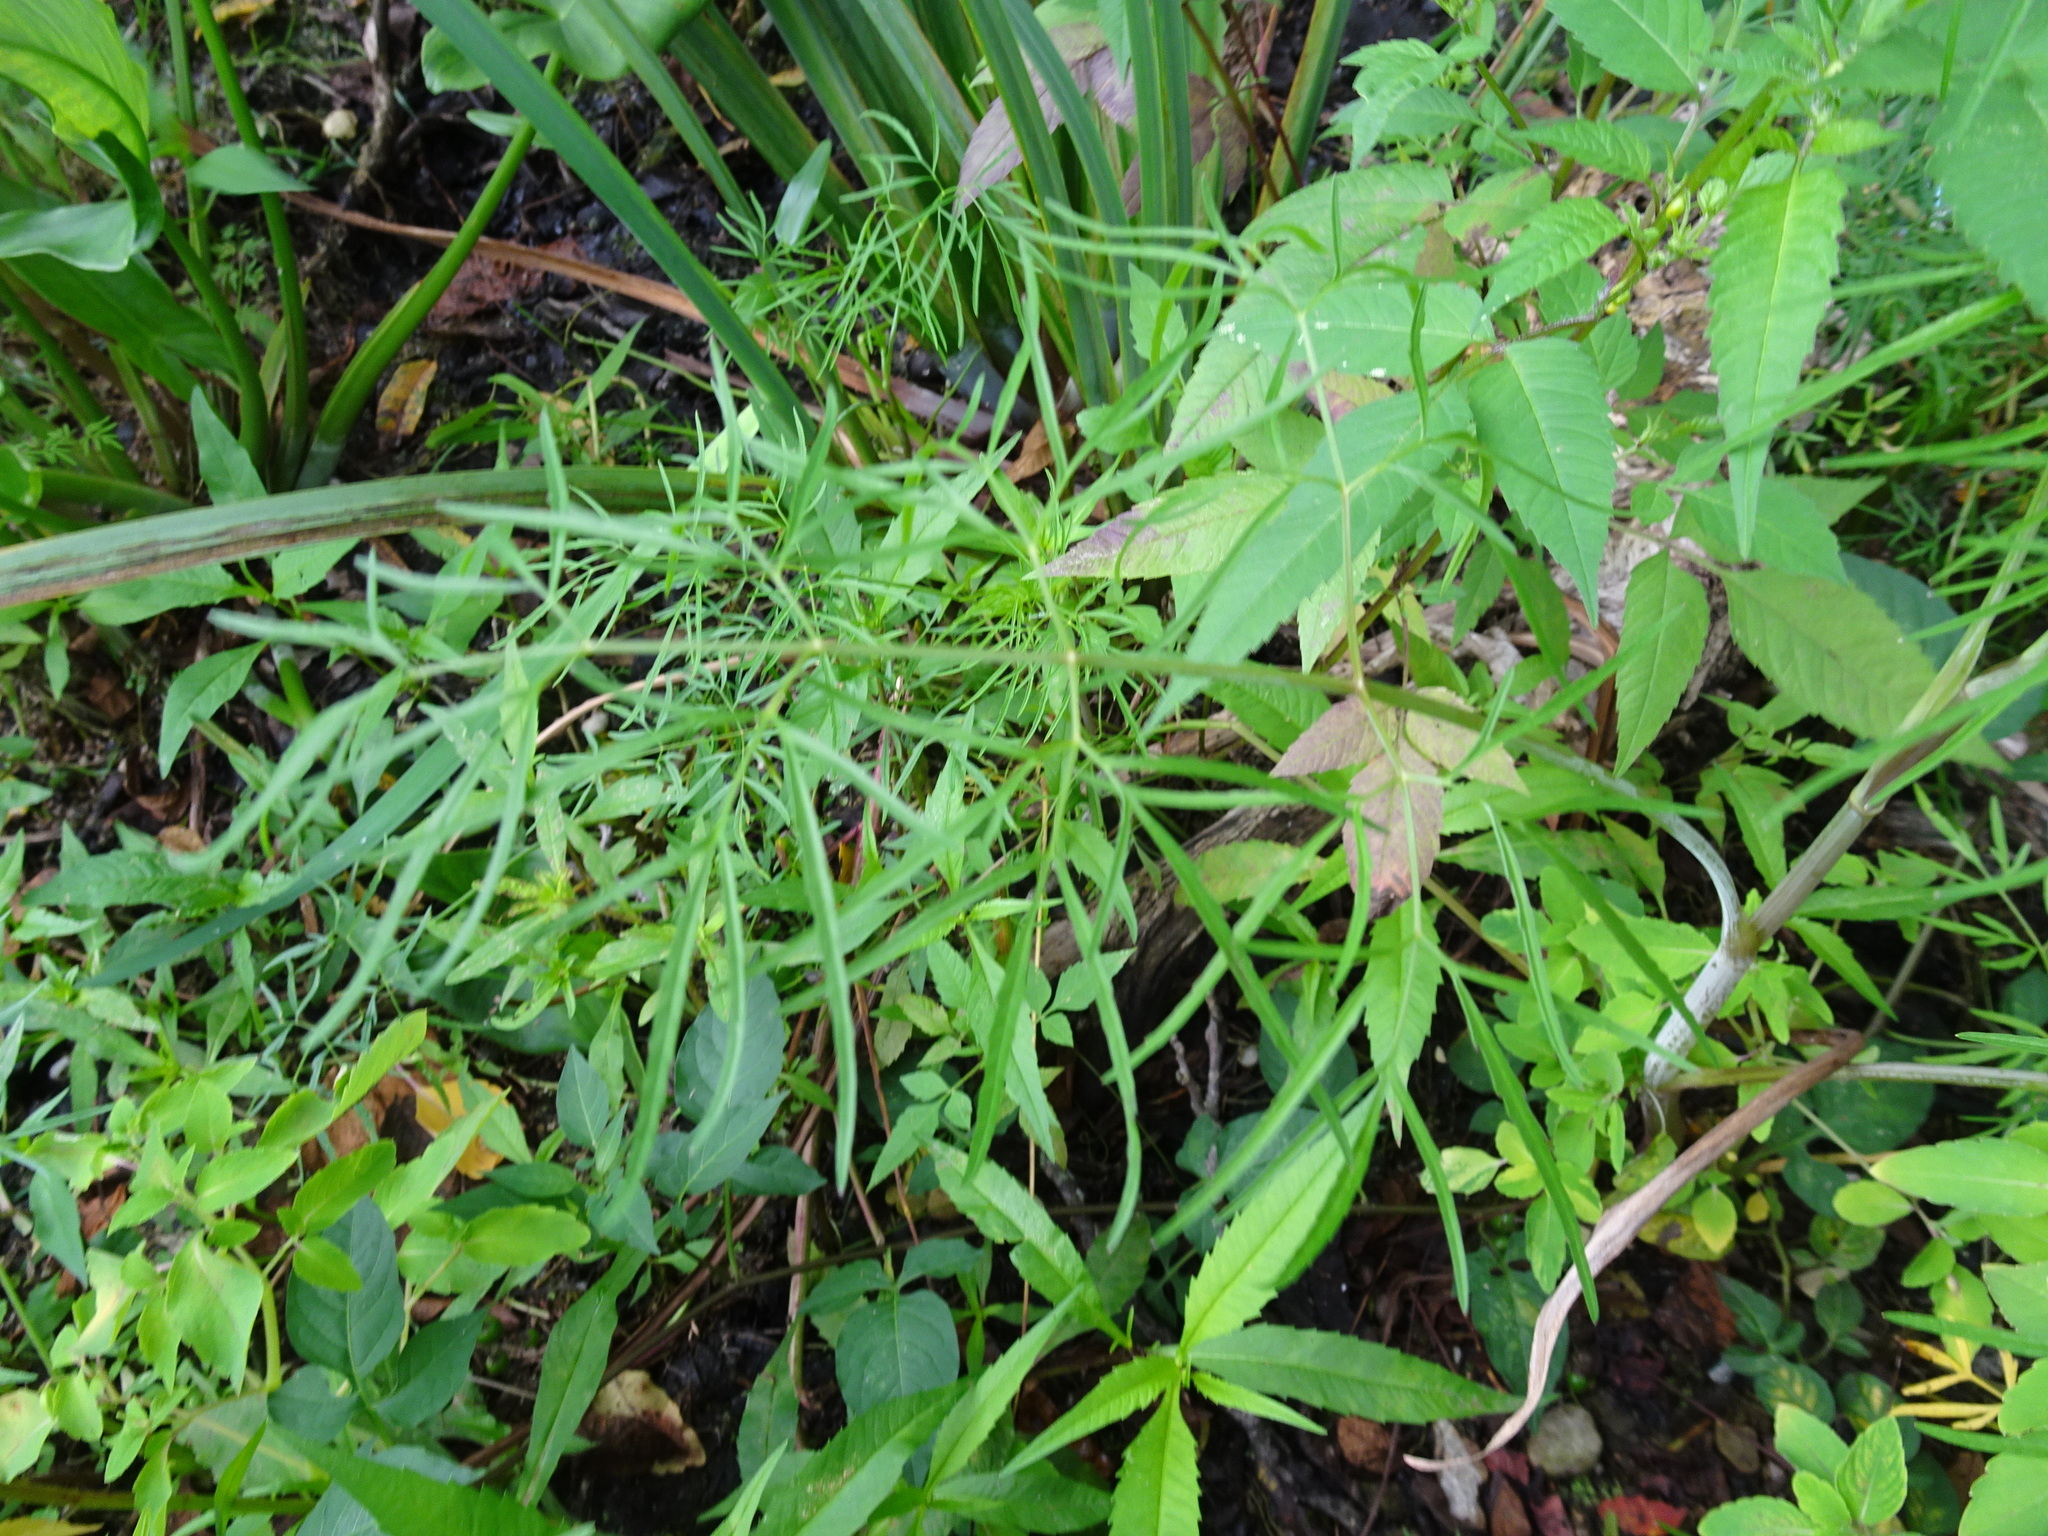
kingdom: Plantae
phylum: Tracheophyta
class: Magnoliopsida
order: Apiales
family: Apiaceae
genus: Cicuta
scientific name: Cicuta bulbifera
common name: Bulb-bearing water-hemlock
